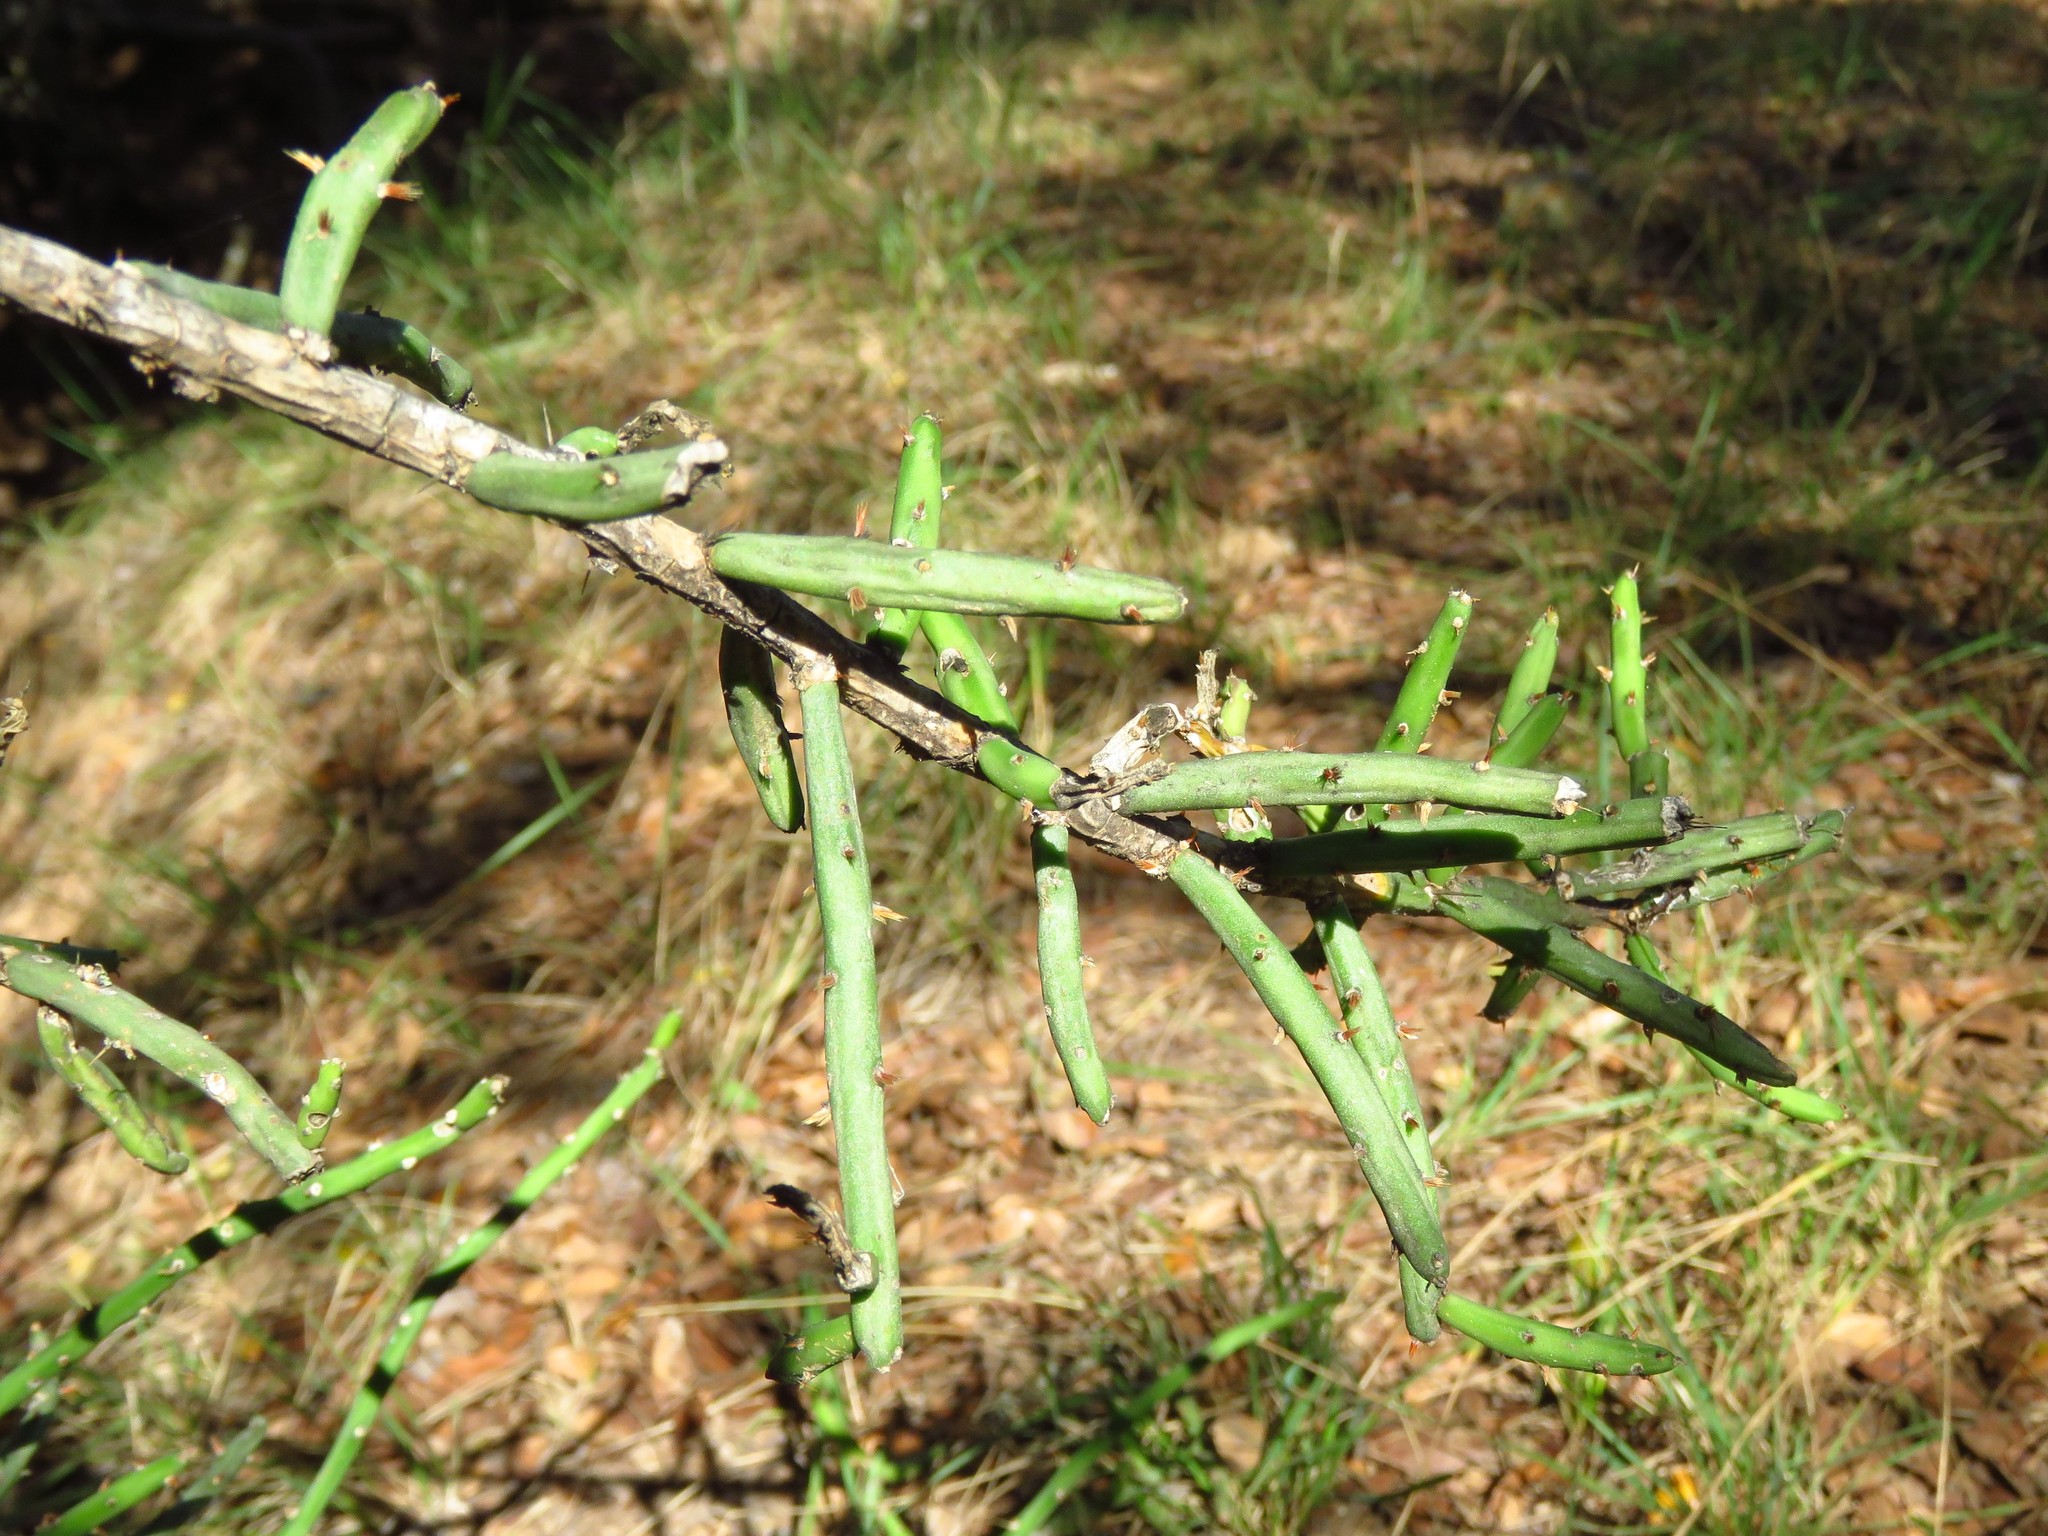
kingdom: Plantae
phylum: Tracheophyta
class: Magnoliopsida
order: Caryophyllales
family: Cactaceae
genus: Cylindropuntia
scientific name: Cylindropuntia leptocaulis
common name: Christmas cactus
